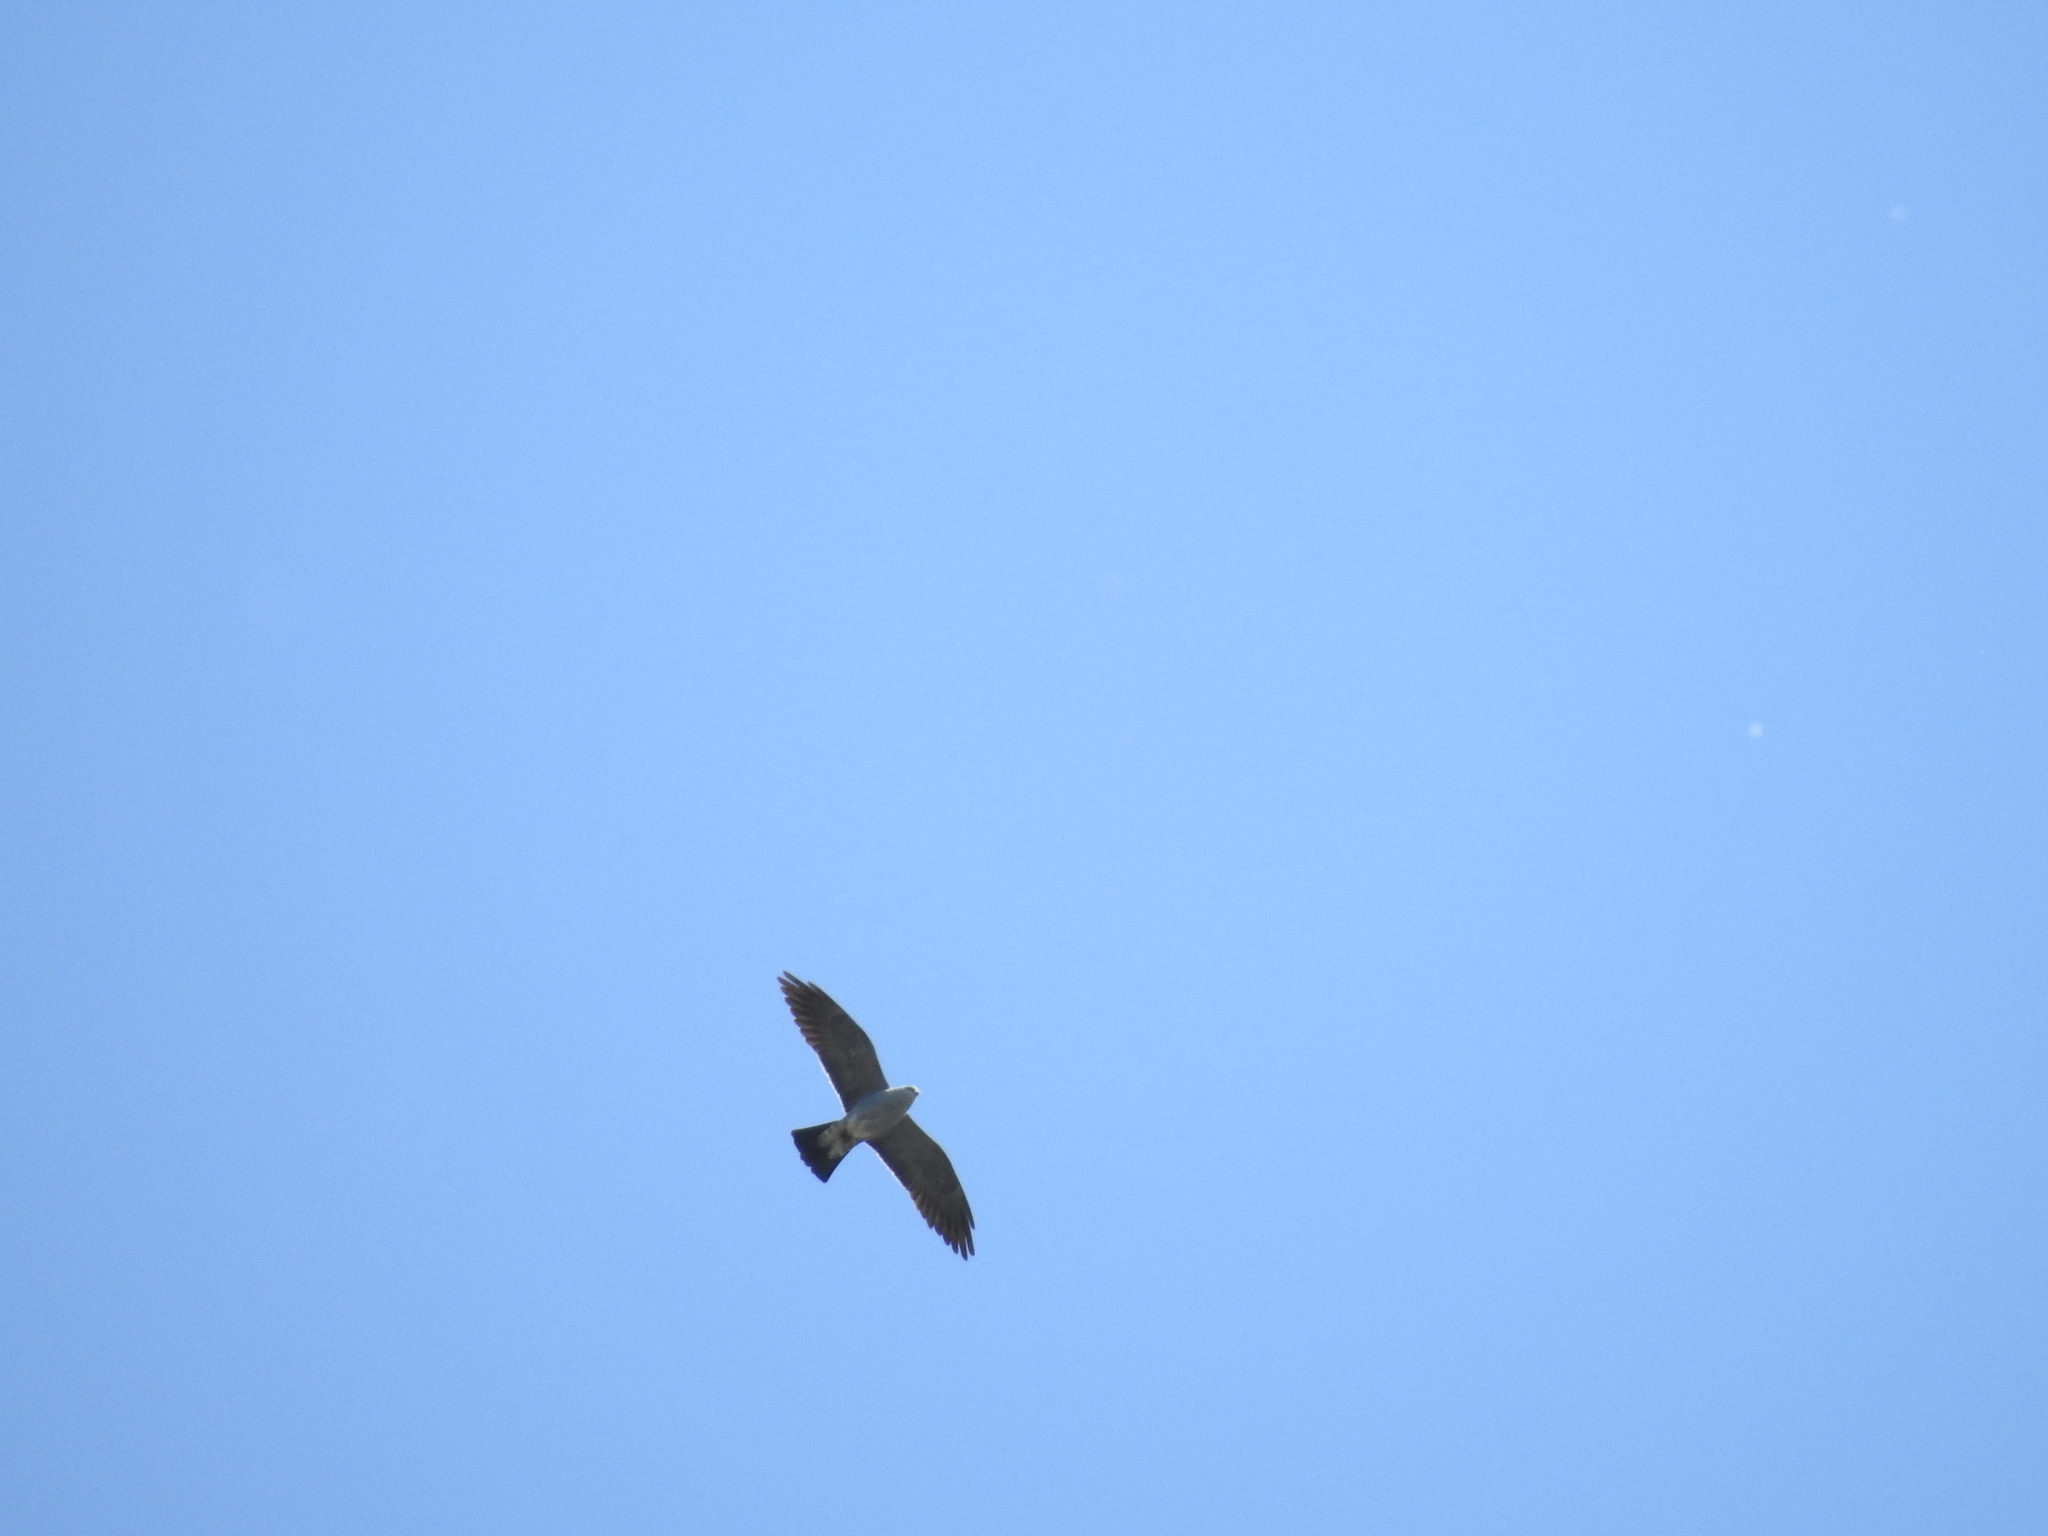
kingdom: Animalia
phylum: Chordata
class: Aves
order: Accipitriformes
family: Accipitridae
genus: Ictinia
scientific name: Ictinia mississippiensis
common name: Mississippi kite
